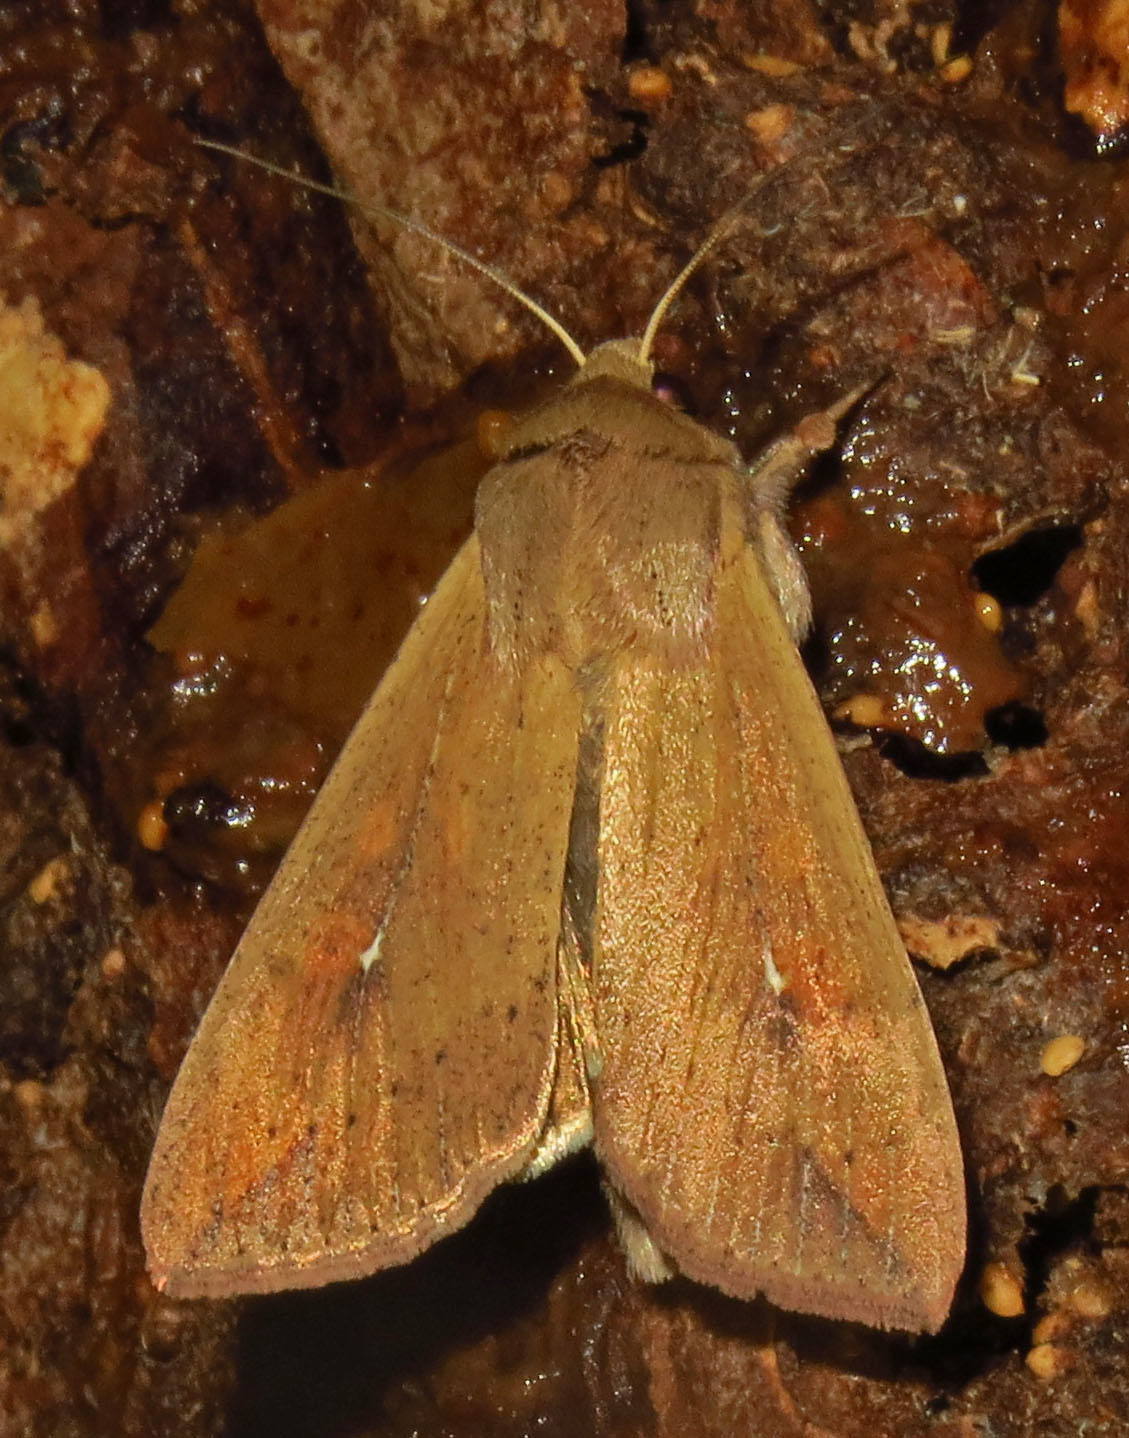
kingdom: Animalia
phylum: Arthropoda
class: Insecta
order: Lepidoptera
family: Noctuidae
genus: Mythimna
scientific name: Mythimna unipuncta
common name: White-speck
